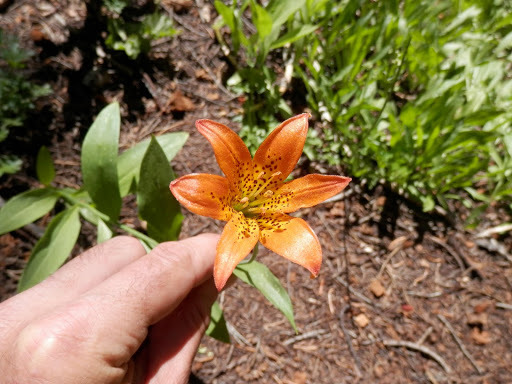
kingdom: Plantae
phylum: Tracheophyta
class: Liliopsida
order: Liliales
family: Liliaceae
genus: Lilium
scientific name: Lilium parvum
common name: Alpine lily
